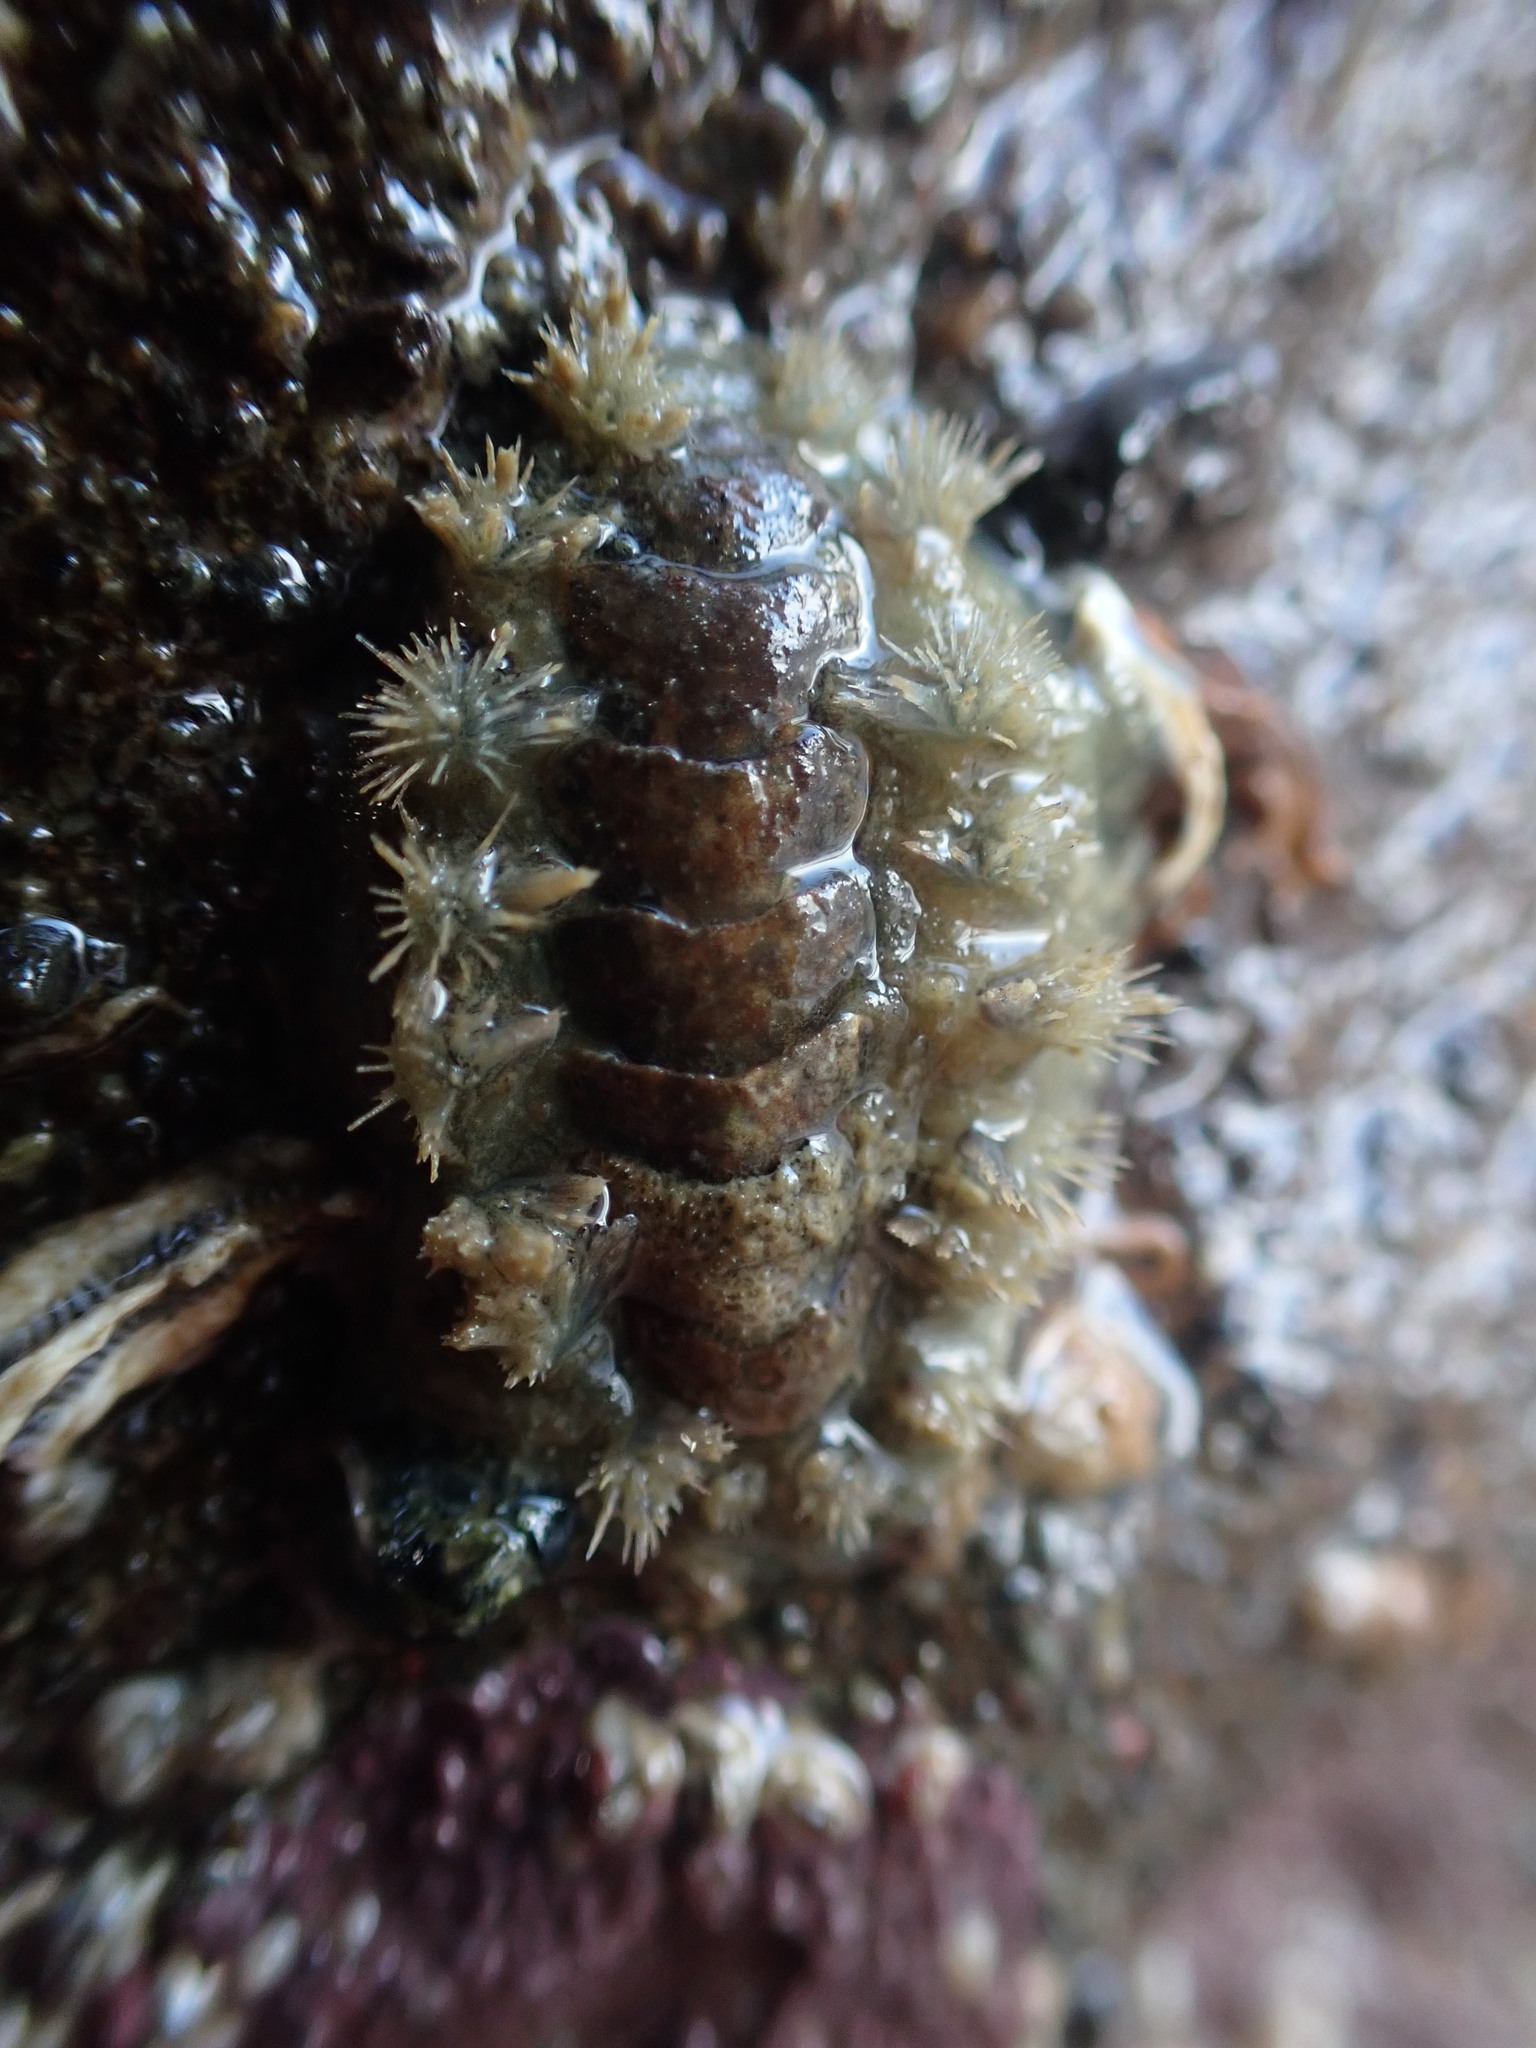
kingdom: Animalia
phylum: Mollusca
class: Polyplacophora
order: Chitonida
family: Acanthochitonidae
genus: Acanthochitona
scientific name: Acanthochitona zelandica
